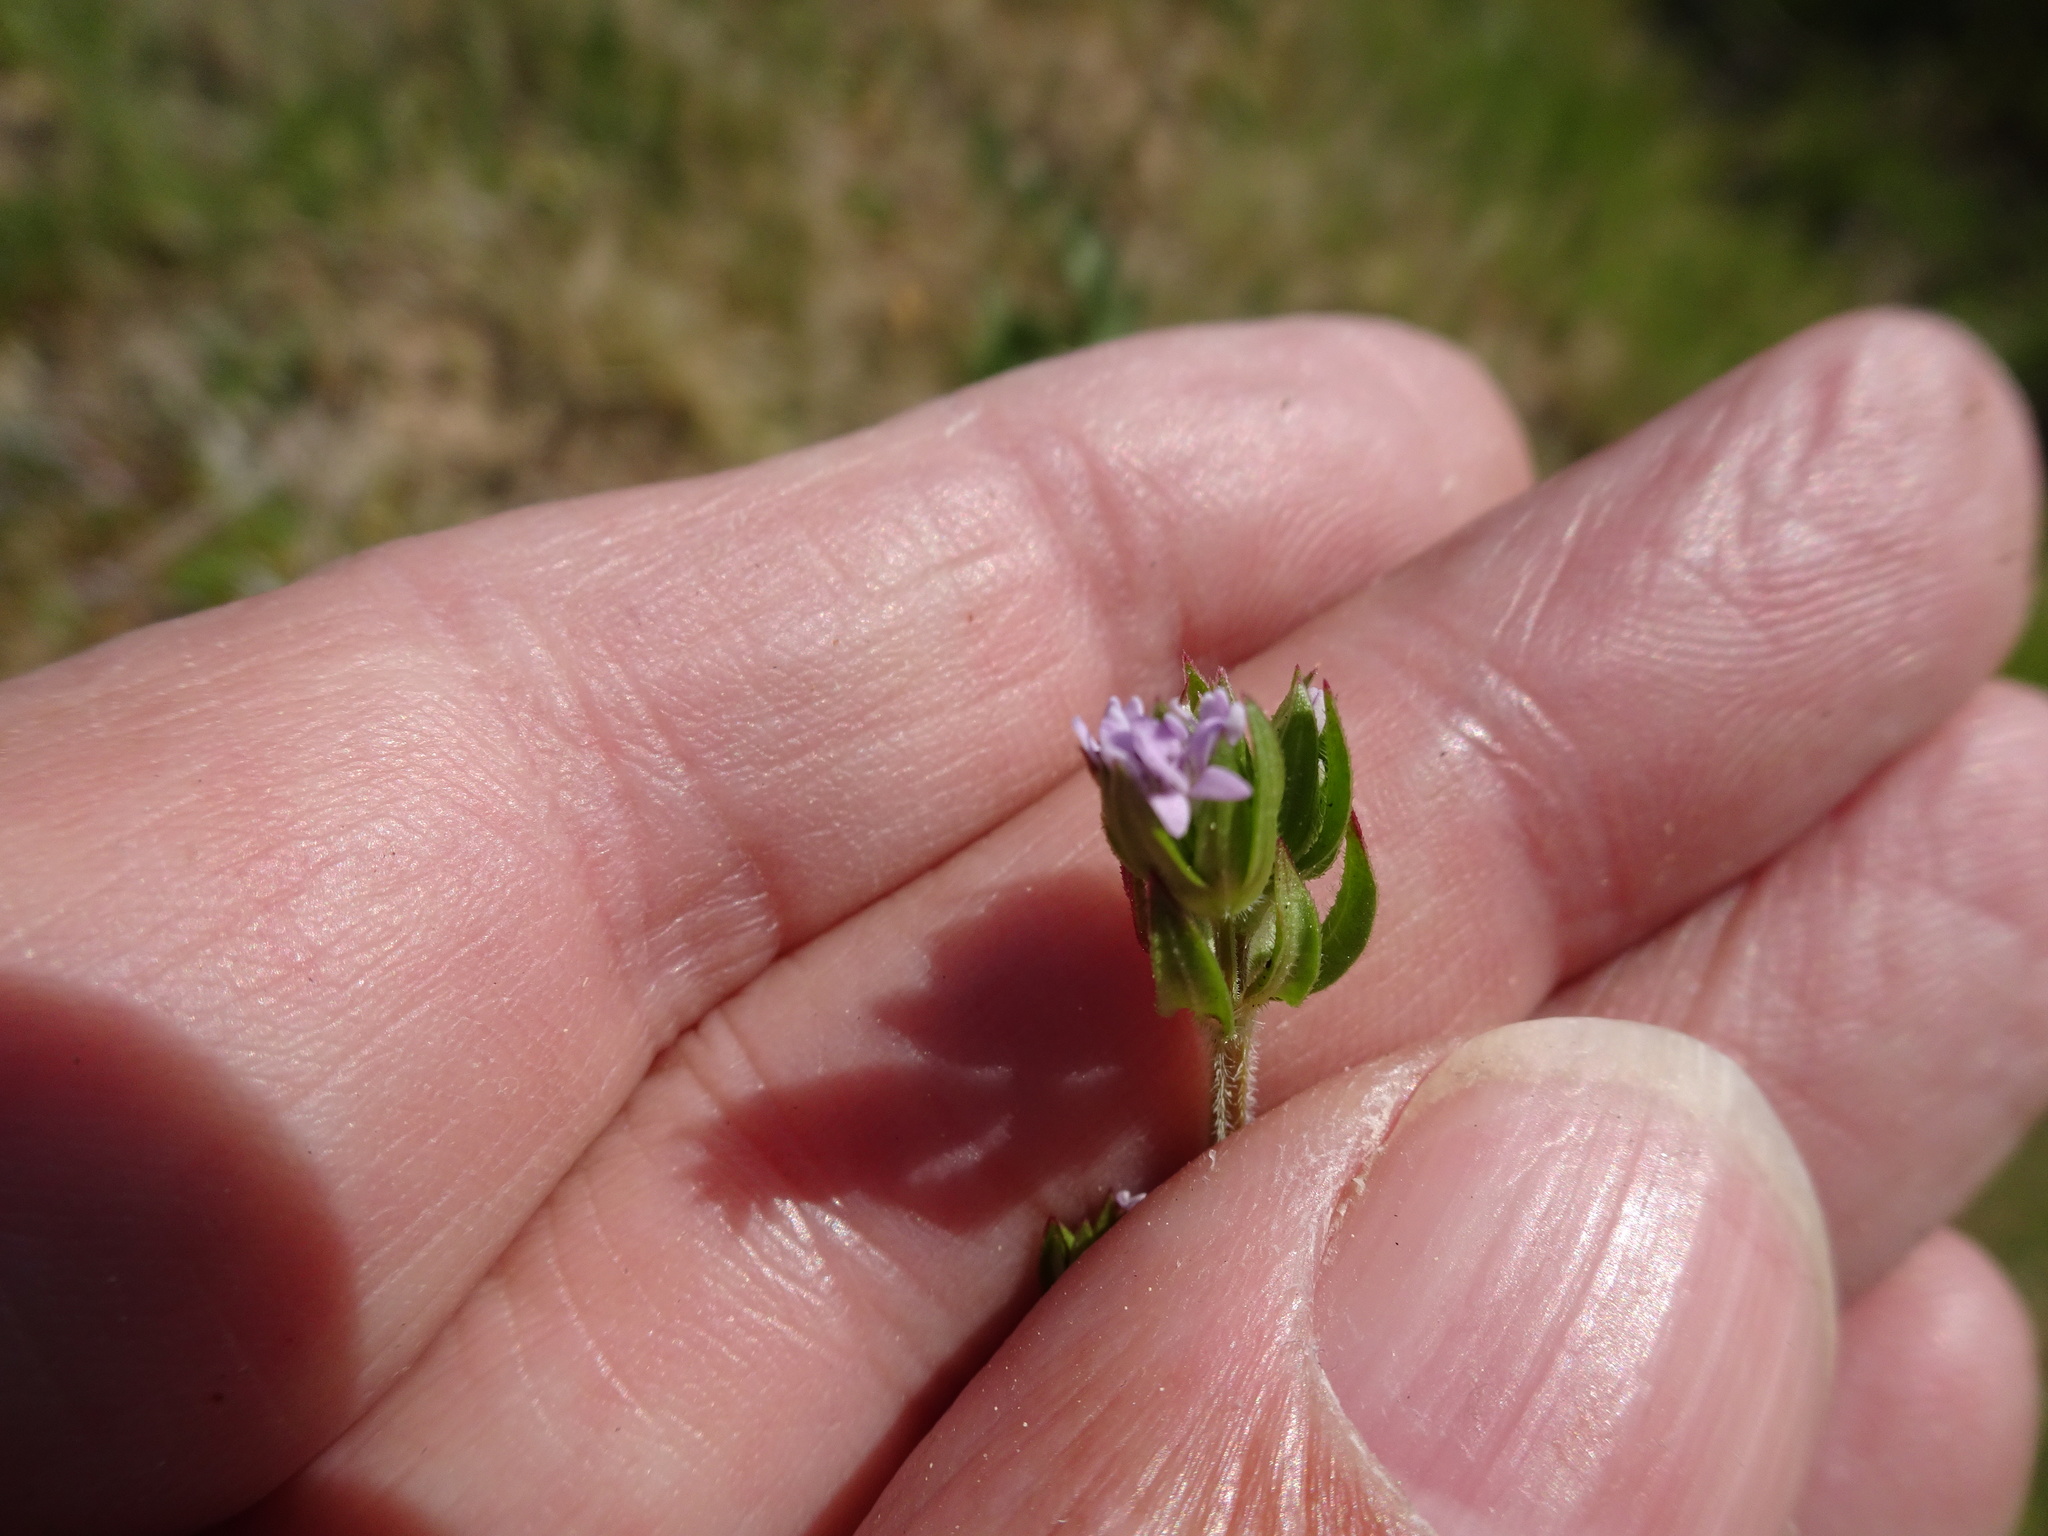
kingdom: Plantae
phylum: Tracheophyta
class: Magnoliopsida
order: Gentianales
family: Rubiaceae
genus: Sherardia
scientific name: Sherardia arvensis
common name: Field madder
